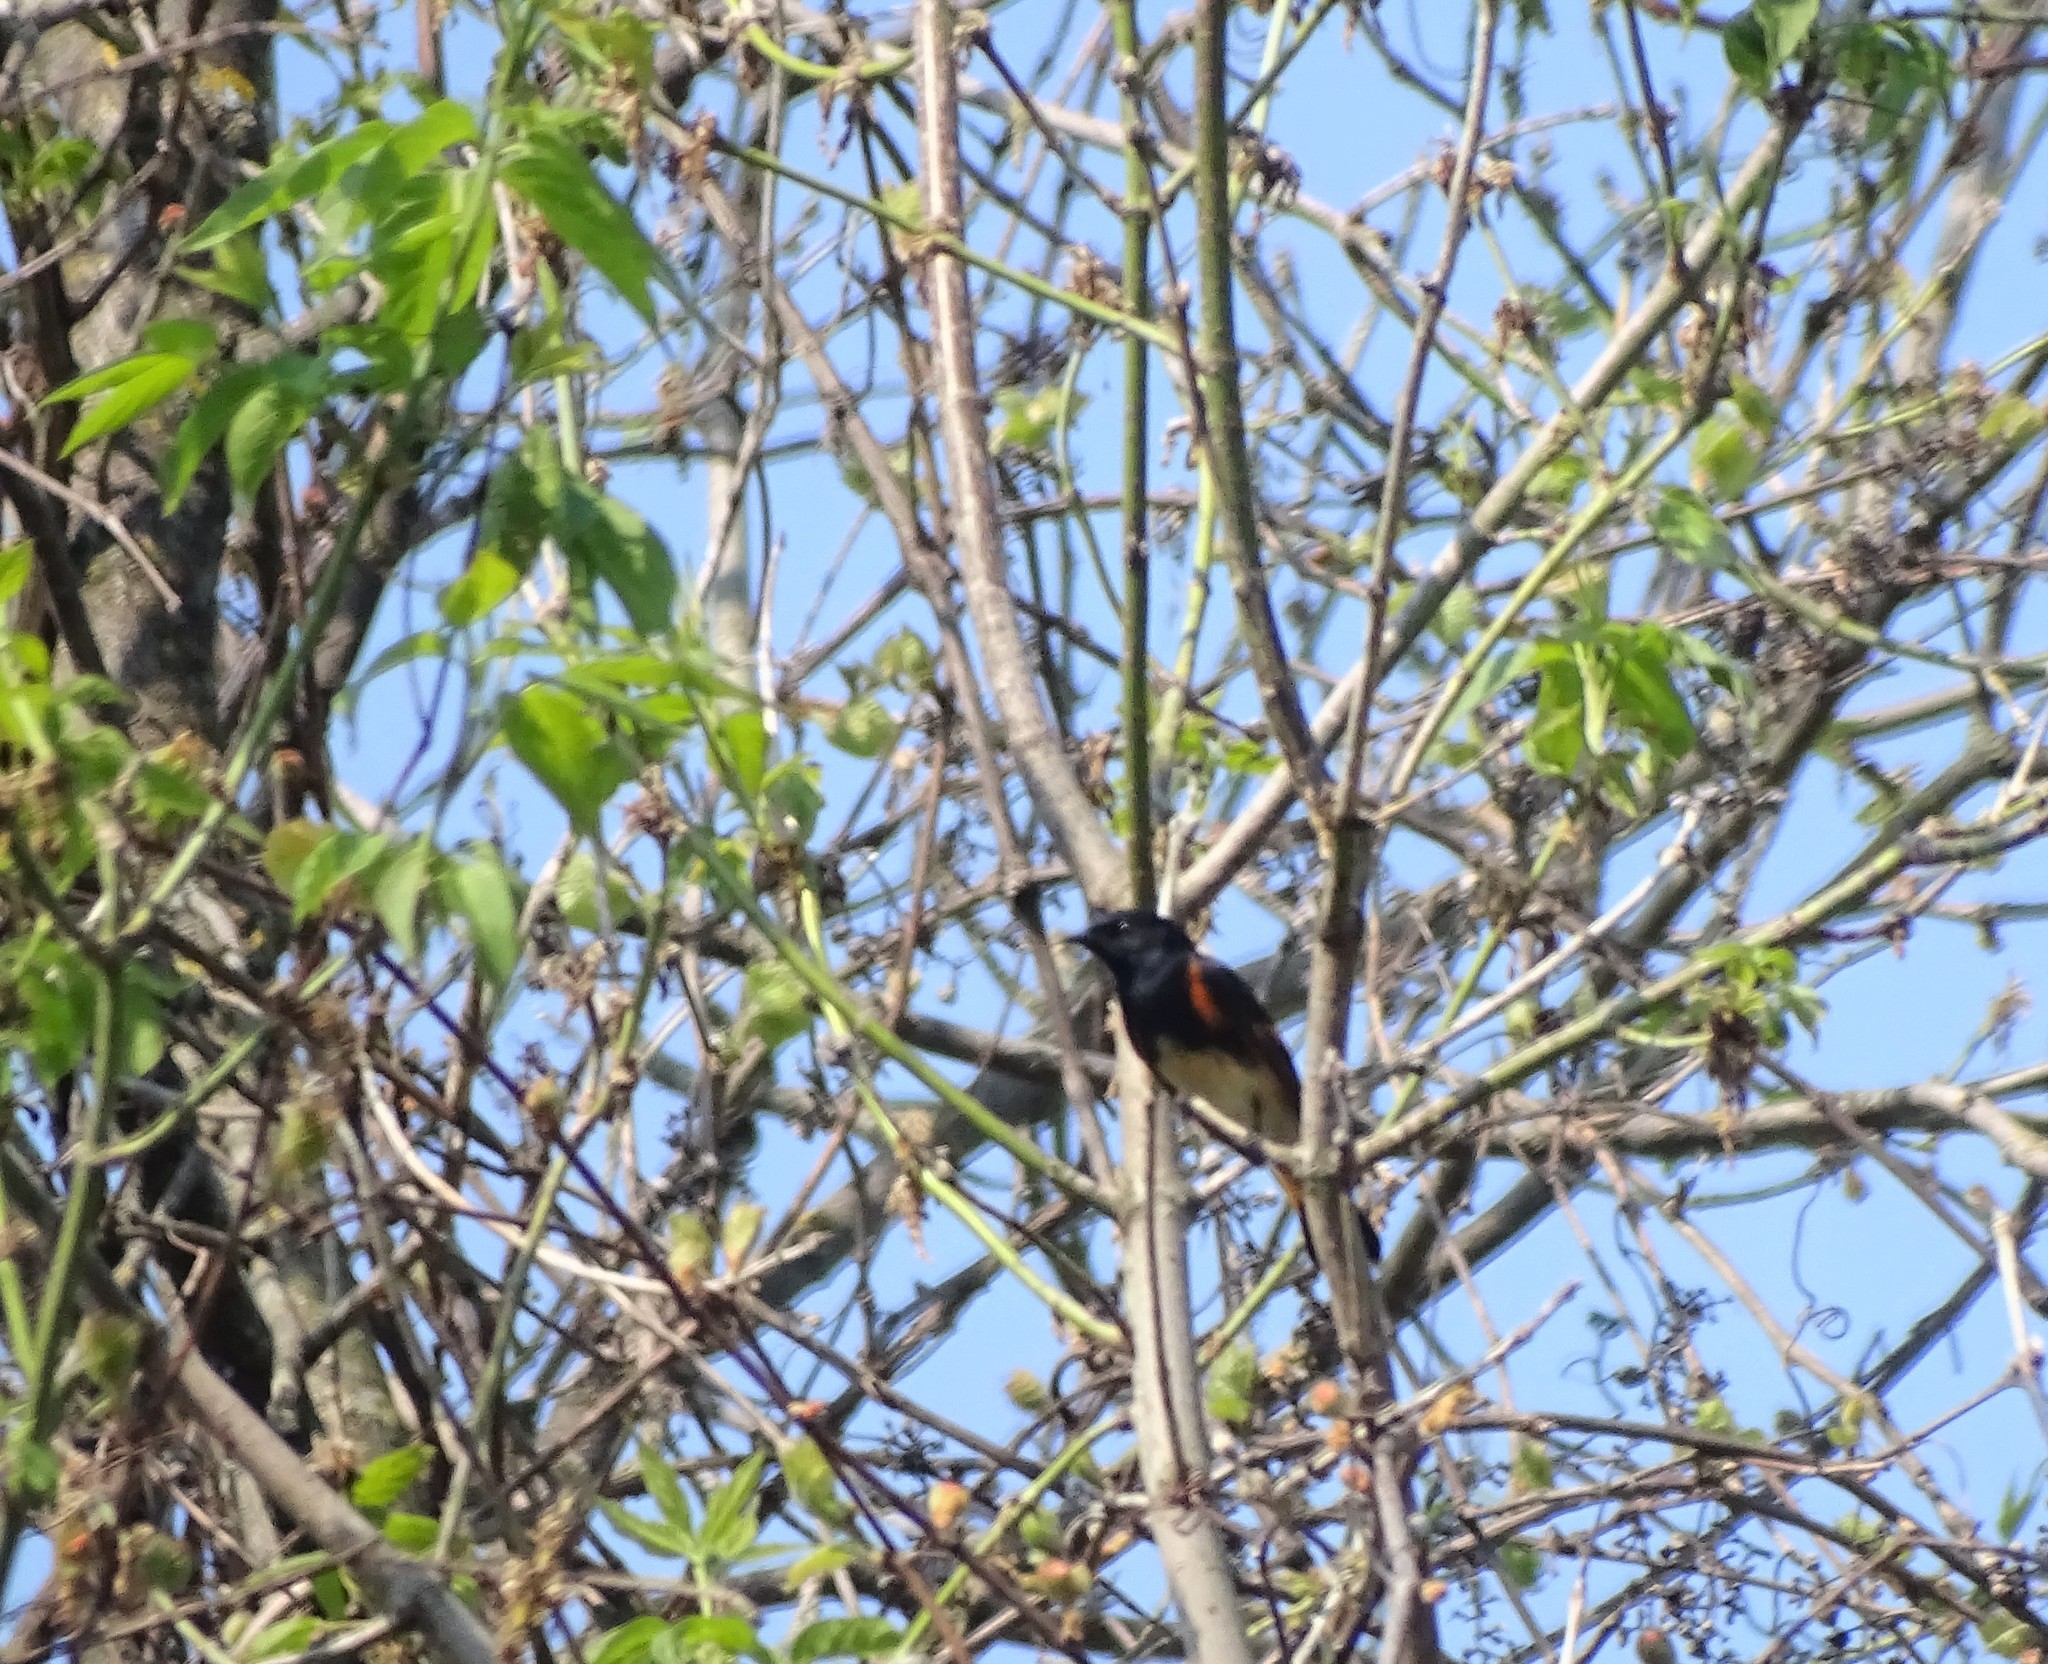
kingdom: Animalia
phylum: Chordata
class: Aves
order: Passeriformes
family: Parulidae
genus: Setophaga
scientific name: Setophaga ruticilla
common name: American redstart
